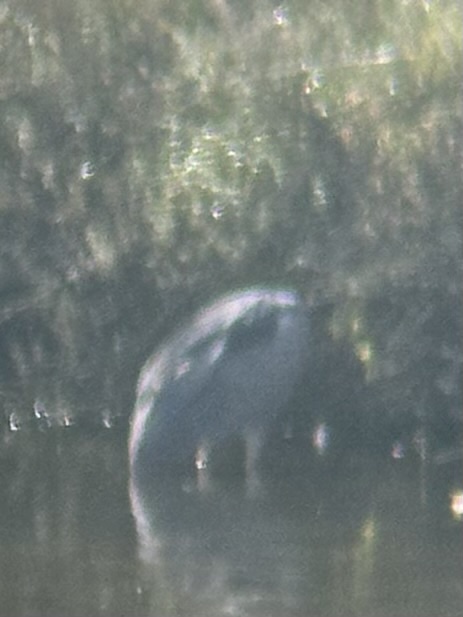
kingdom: Animalia
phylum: Chordata
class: Aves
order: Pelecaniformes
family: Ardeidae
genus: Nycticorax
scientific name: Nycticorax nycticorax
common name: Black-crowned night heron
